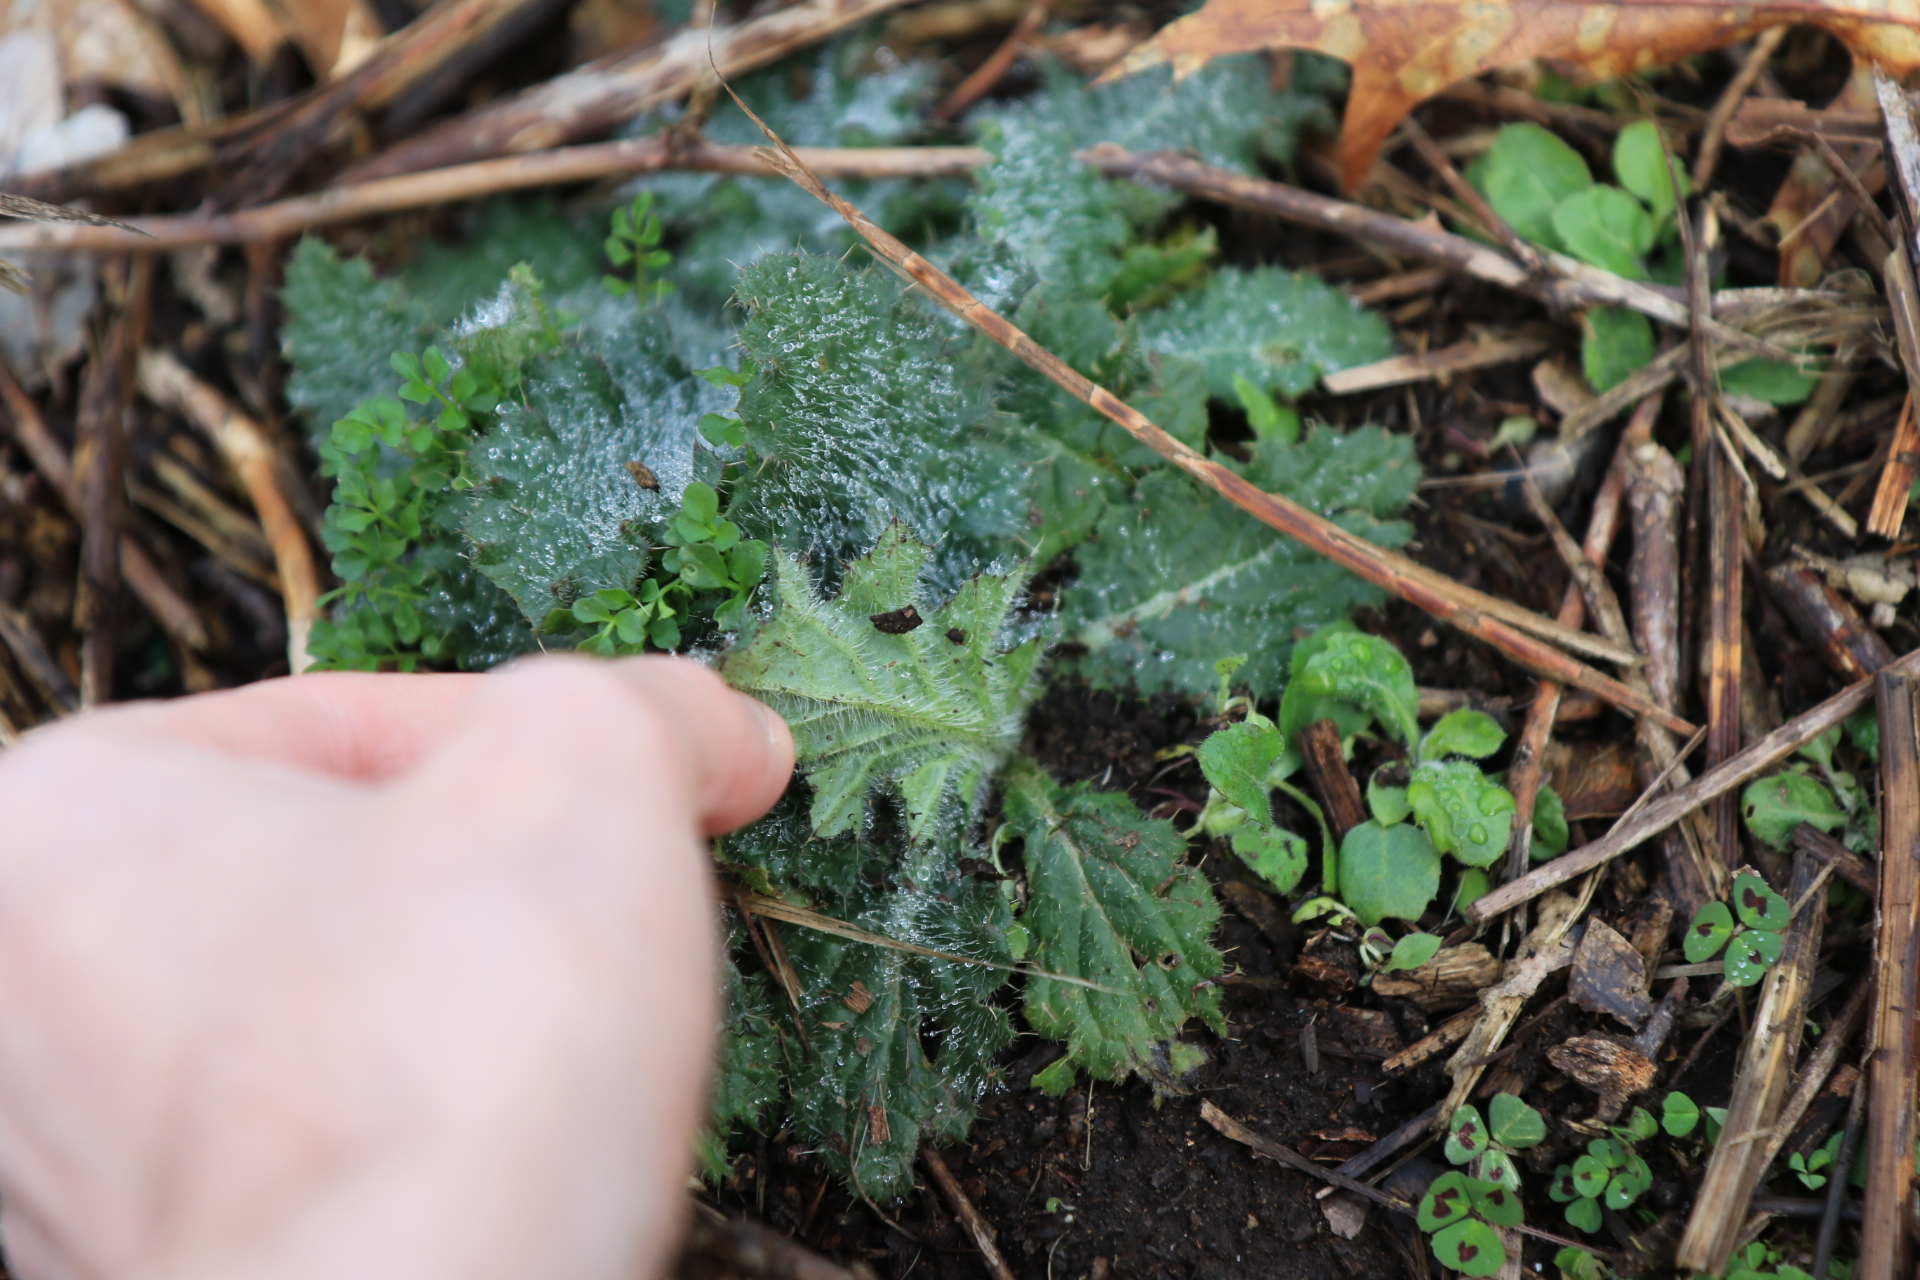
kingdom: Plantae
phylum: Tracheophyta
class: Magnoliopsida
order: Asterales
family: Asteraceae
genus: Cirsium
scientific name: Cirsium vulgare
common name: Bull thistle
